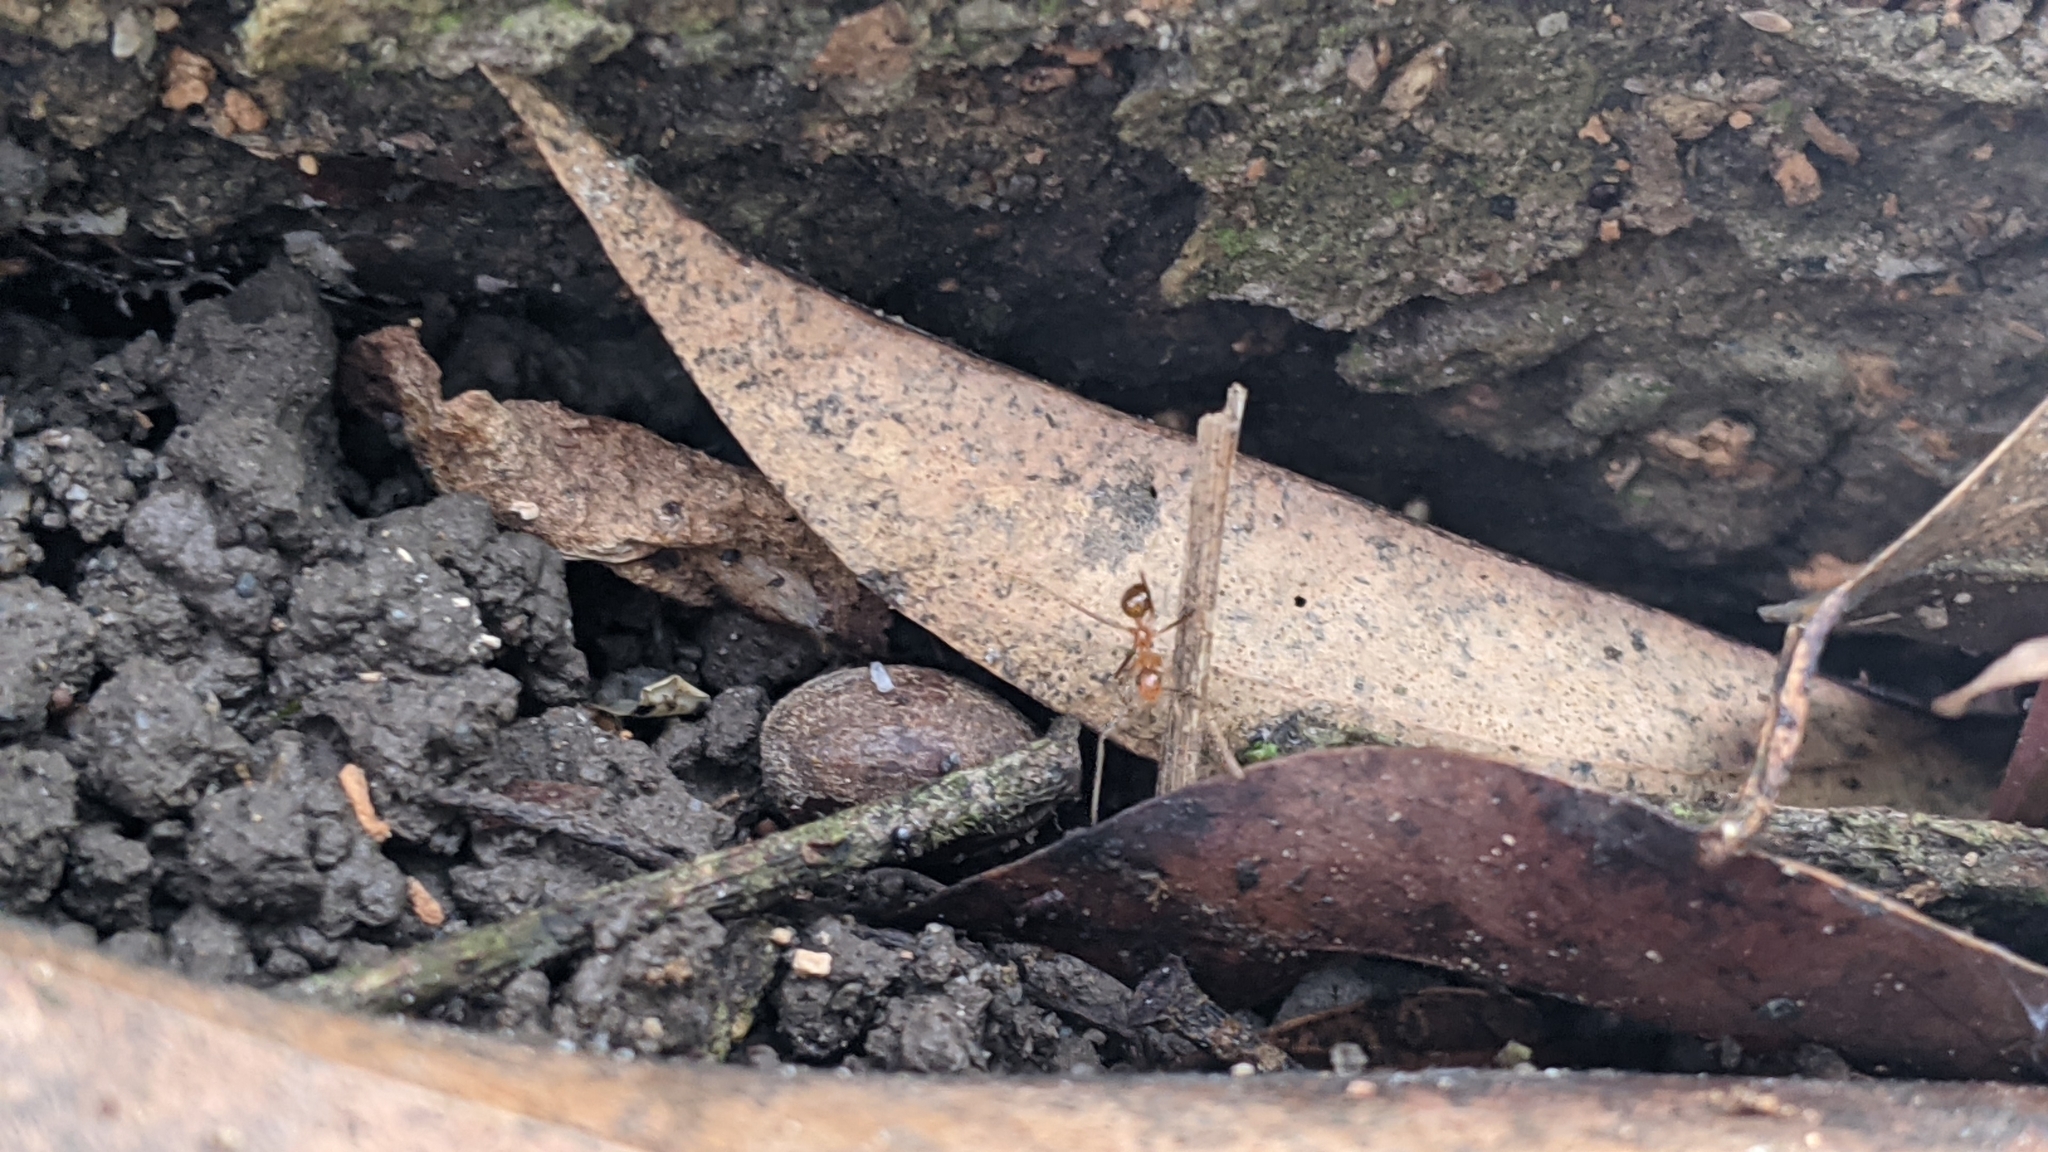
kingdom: Animalia
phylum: Arthropoda
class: Insecta
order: Hymenoptera
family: Formicidae
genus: Anoplolepis
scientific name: Anoplolepis gracilipes
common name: Ant
